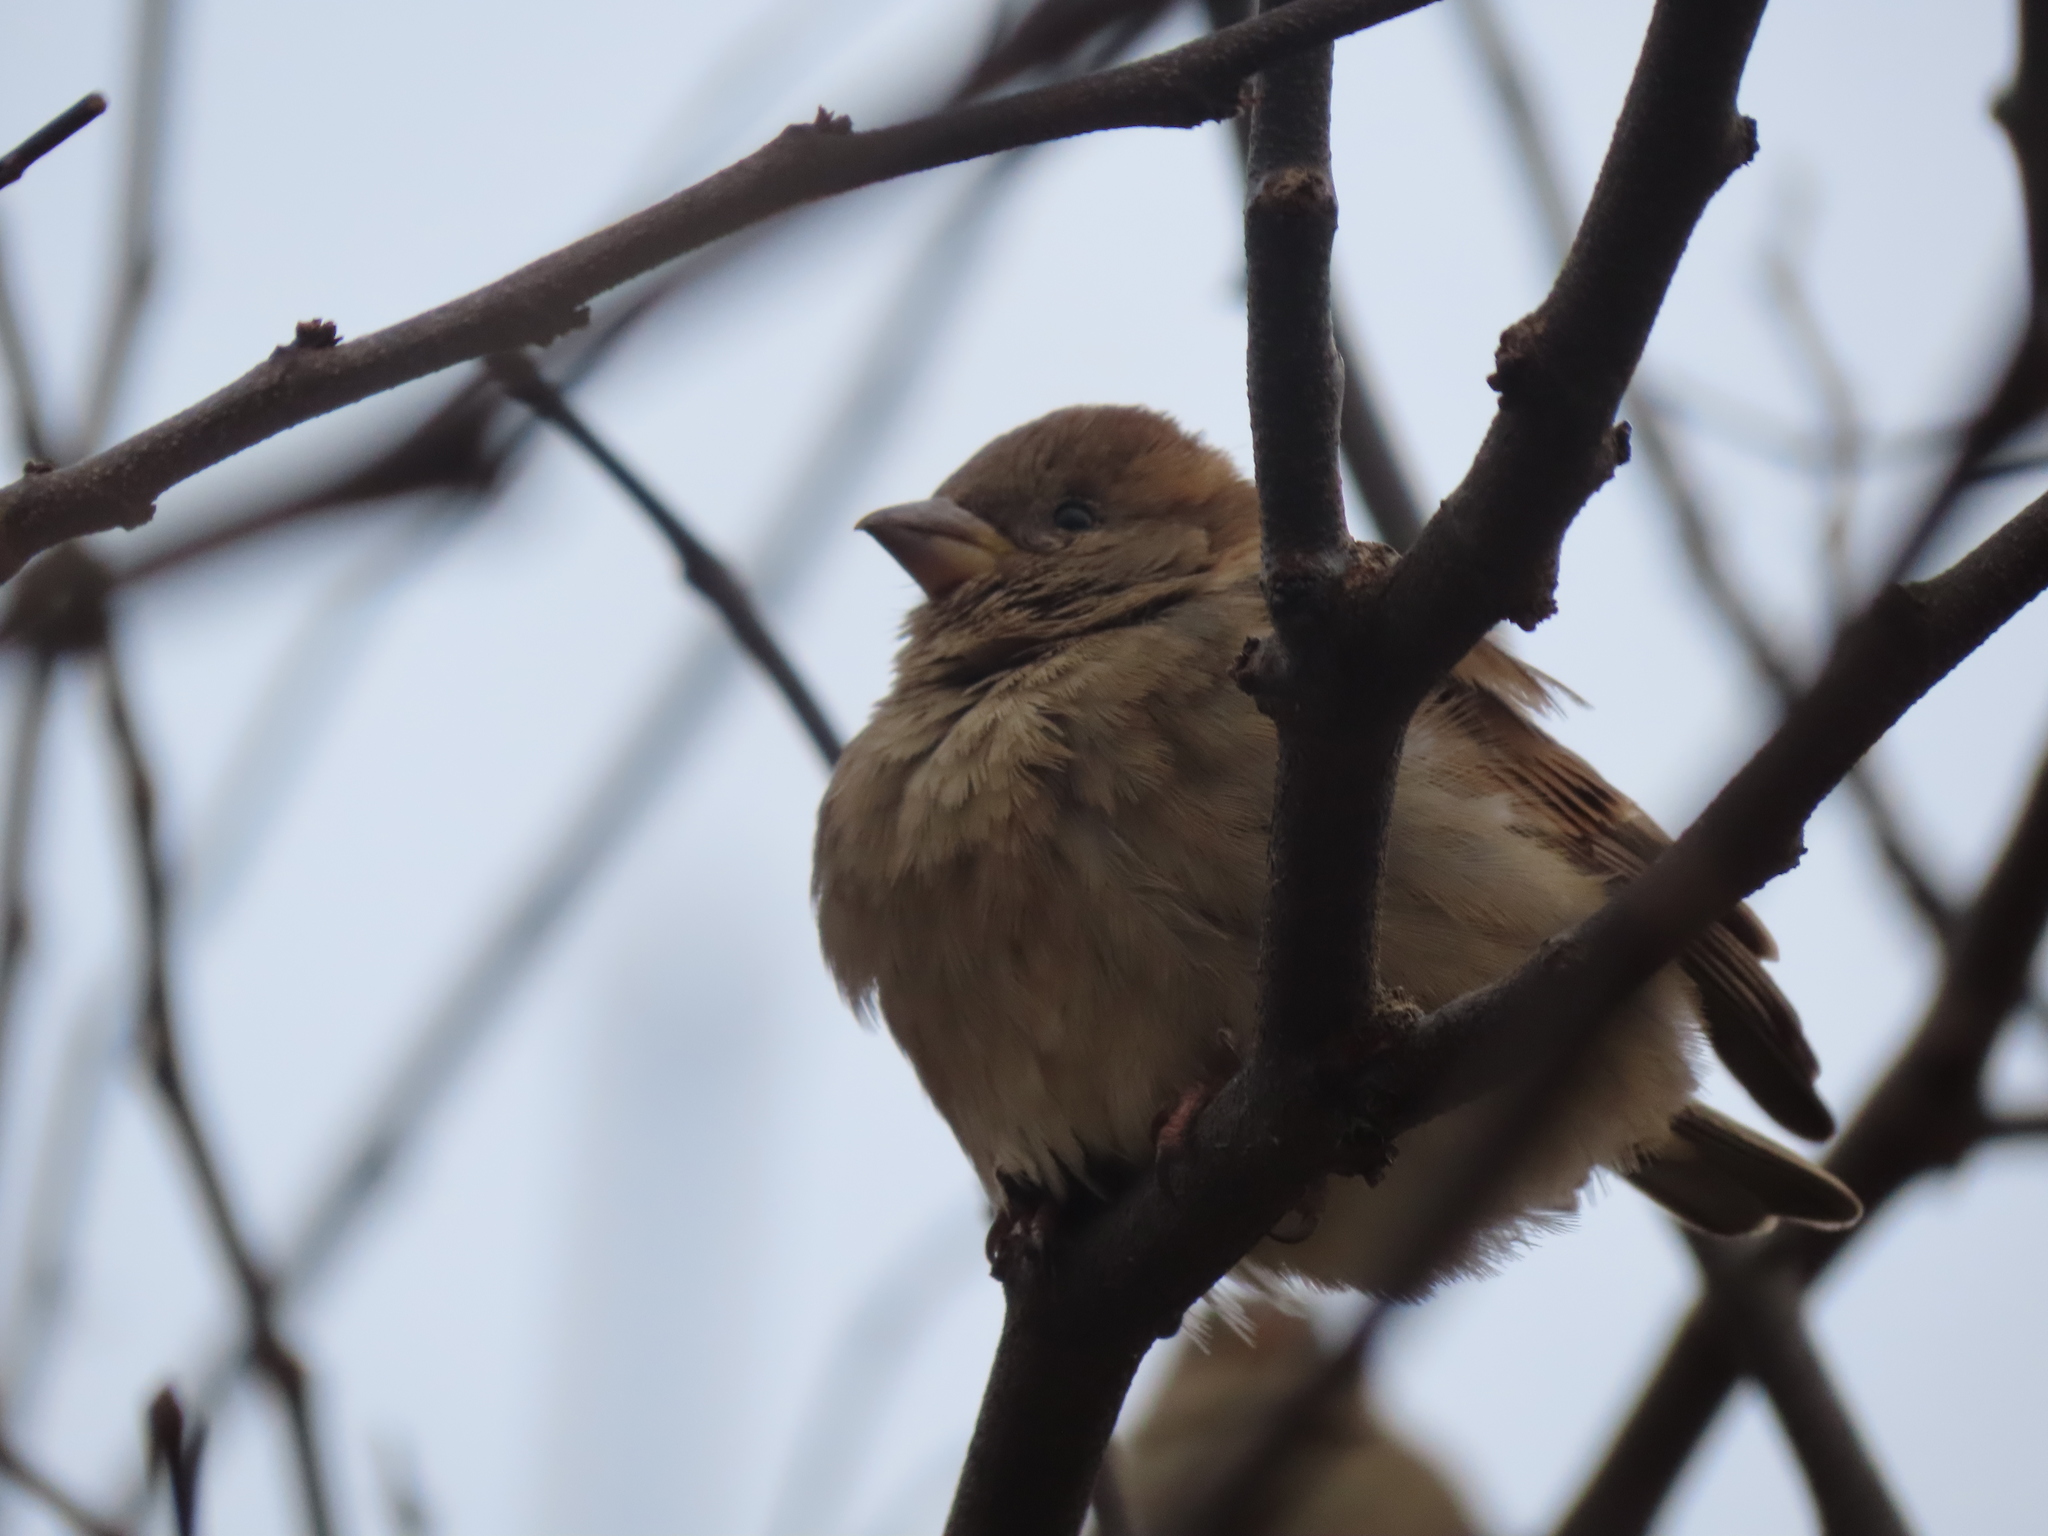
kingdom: Animalia
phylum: Chordata
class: Aves
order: Passeriformes
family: Passeridae
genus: Passer
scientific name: Passer domesticus
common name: House sparrow
